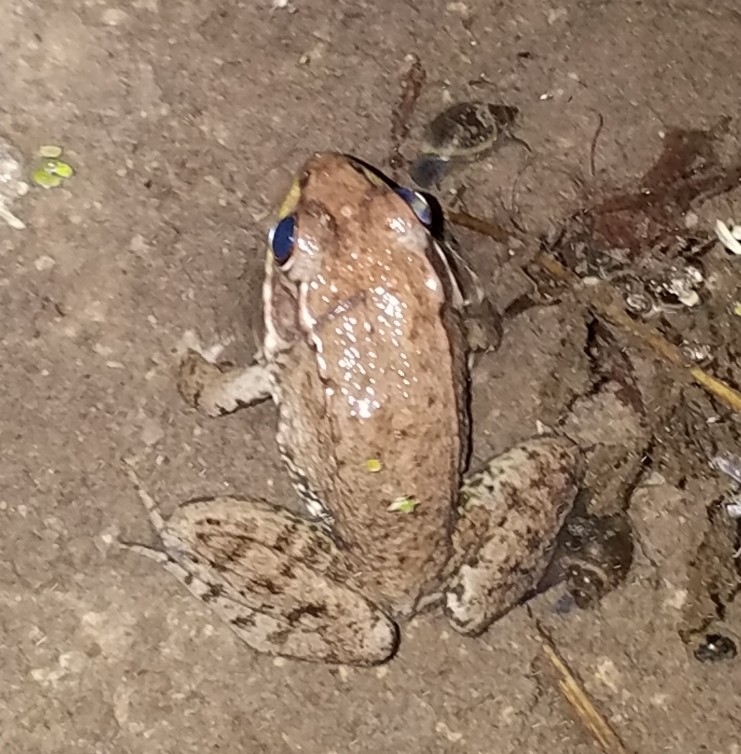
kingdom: Animalia
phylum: Chordata
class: Amphibia
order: Anura
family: Ranidae
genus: Lithobates
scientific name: Lithobates clamitans
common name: Green frog
